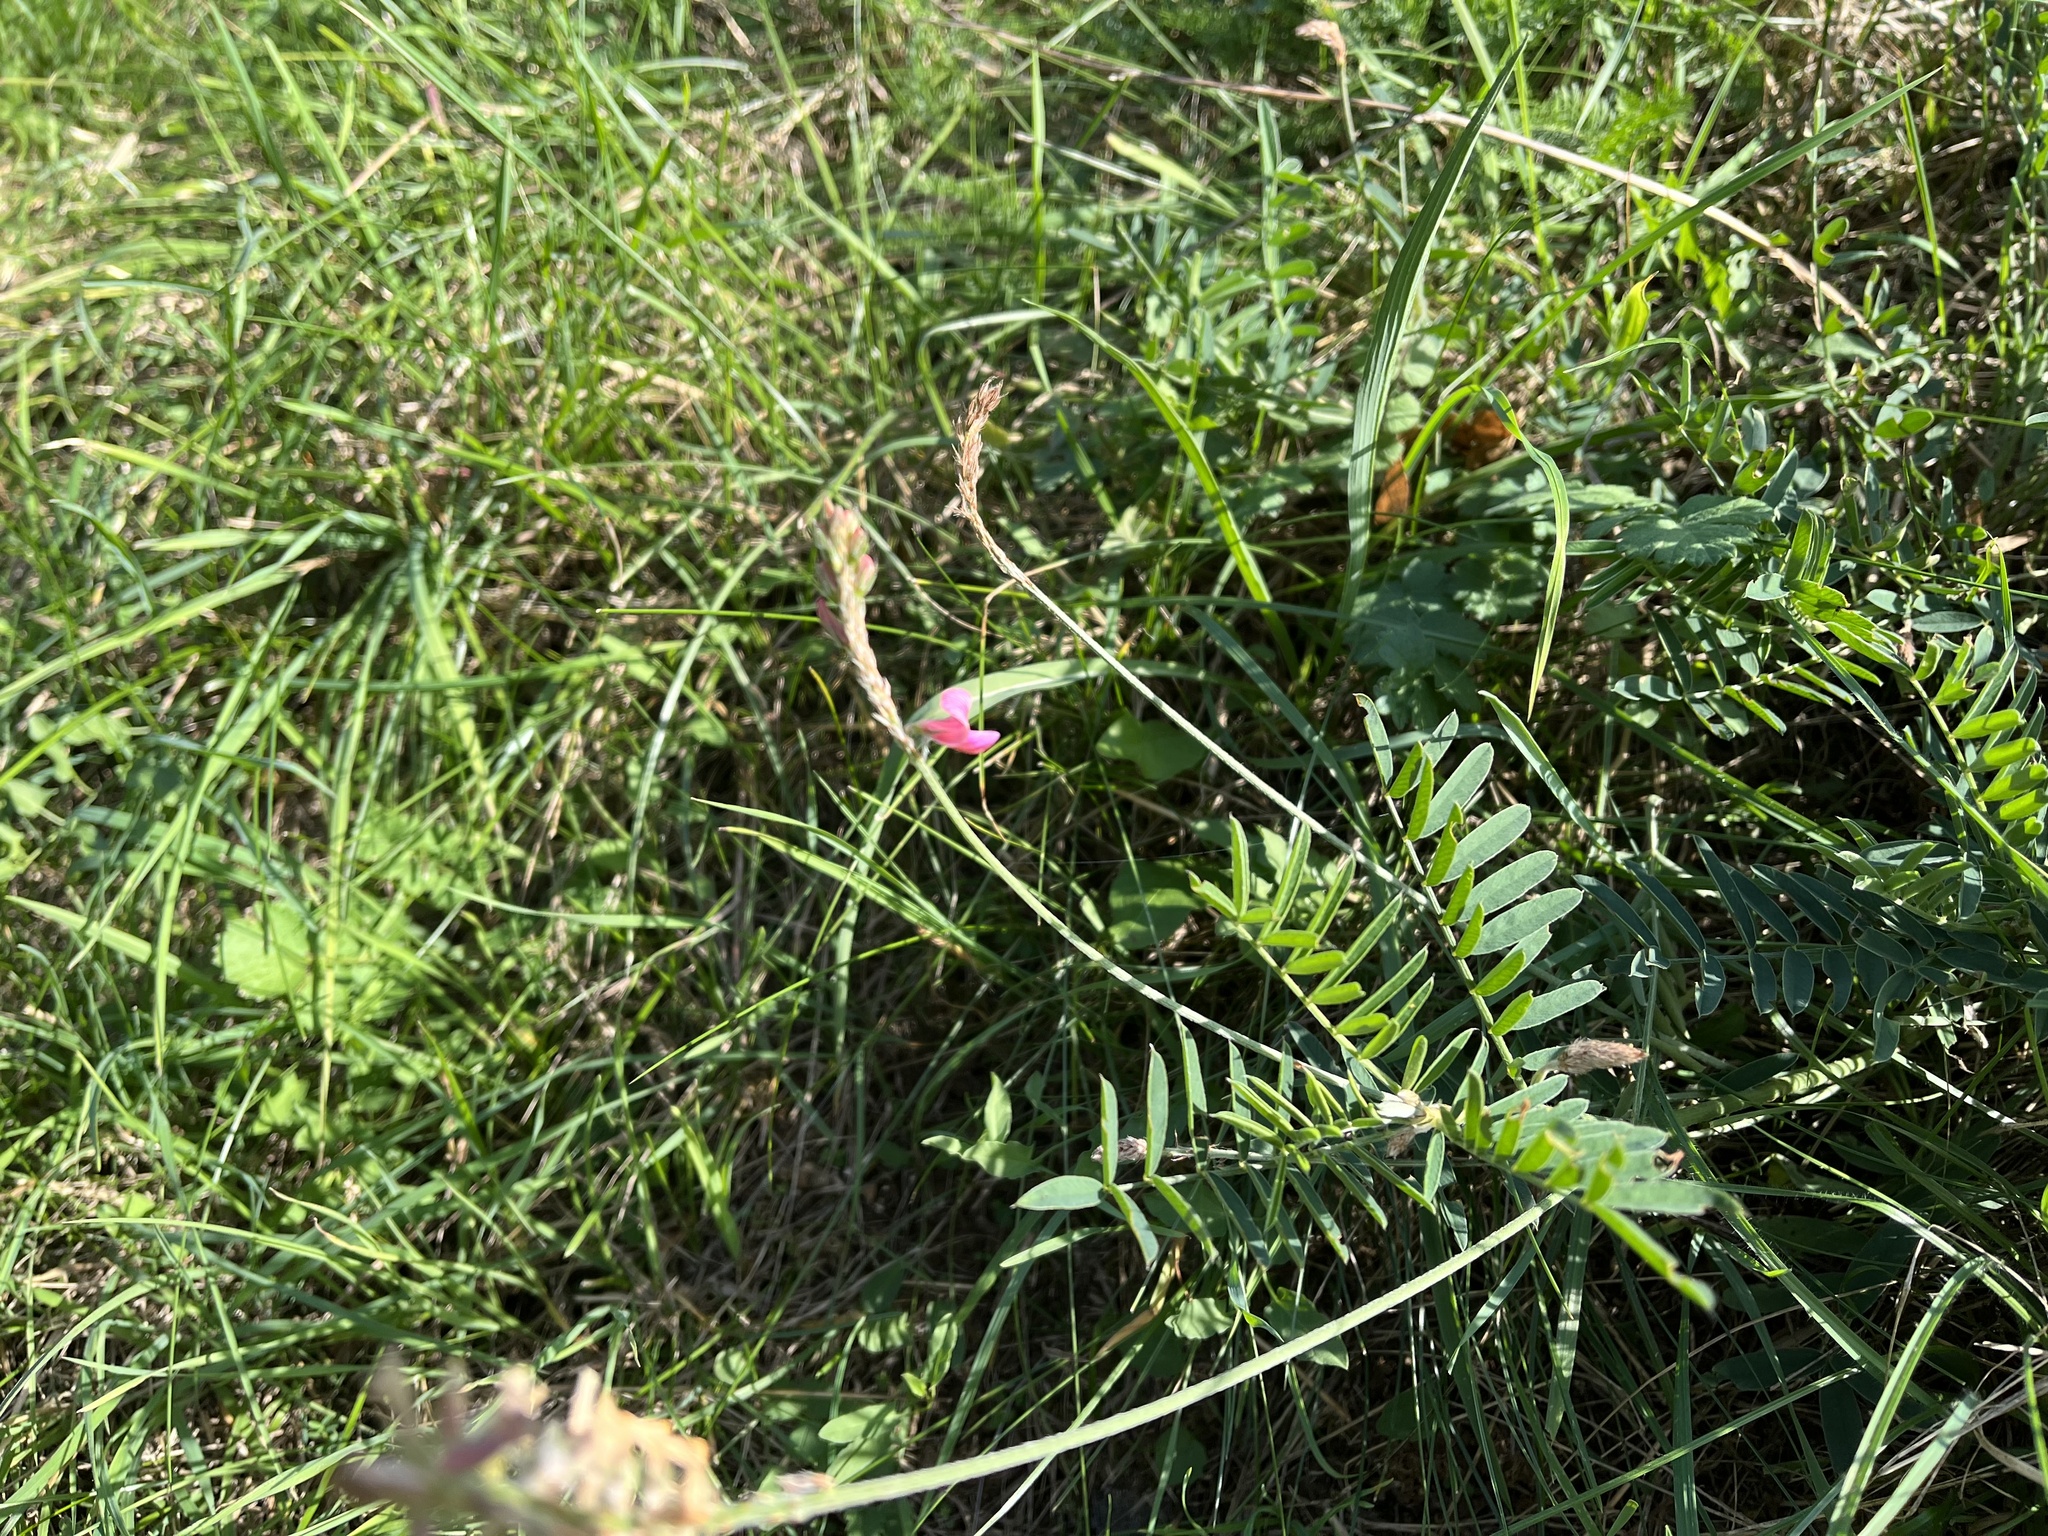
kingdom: Plantae
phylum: Tracheophyta
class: Magnoliopsida
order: Fabales
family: Fabaceae
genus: Onobrychis
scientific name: Onobrychis viciifolia
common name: Sainfoin
